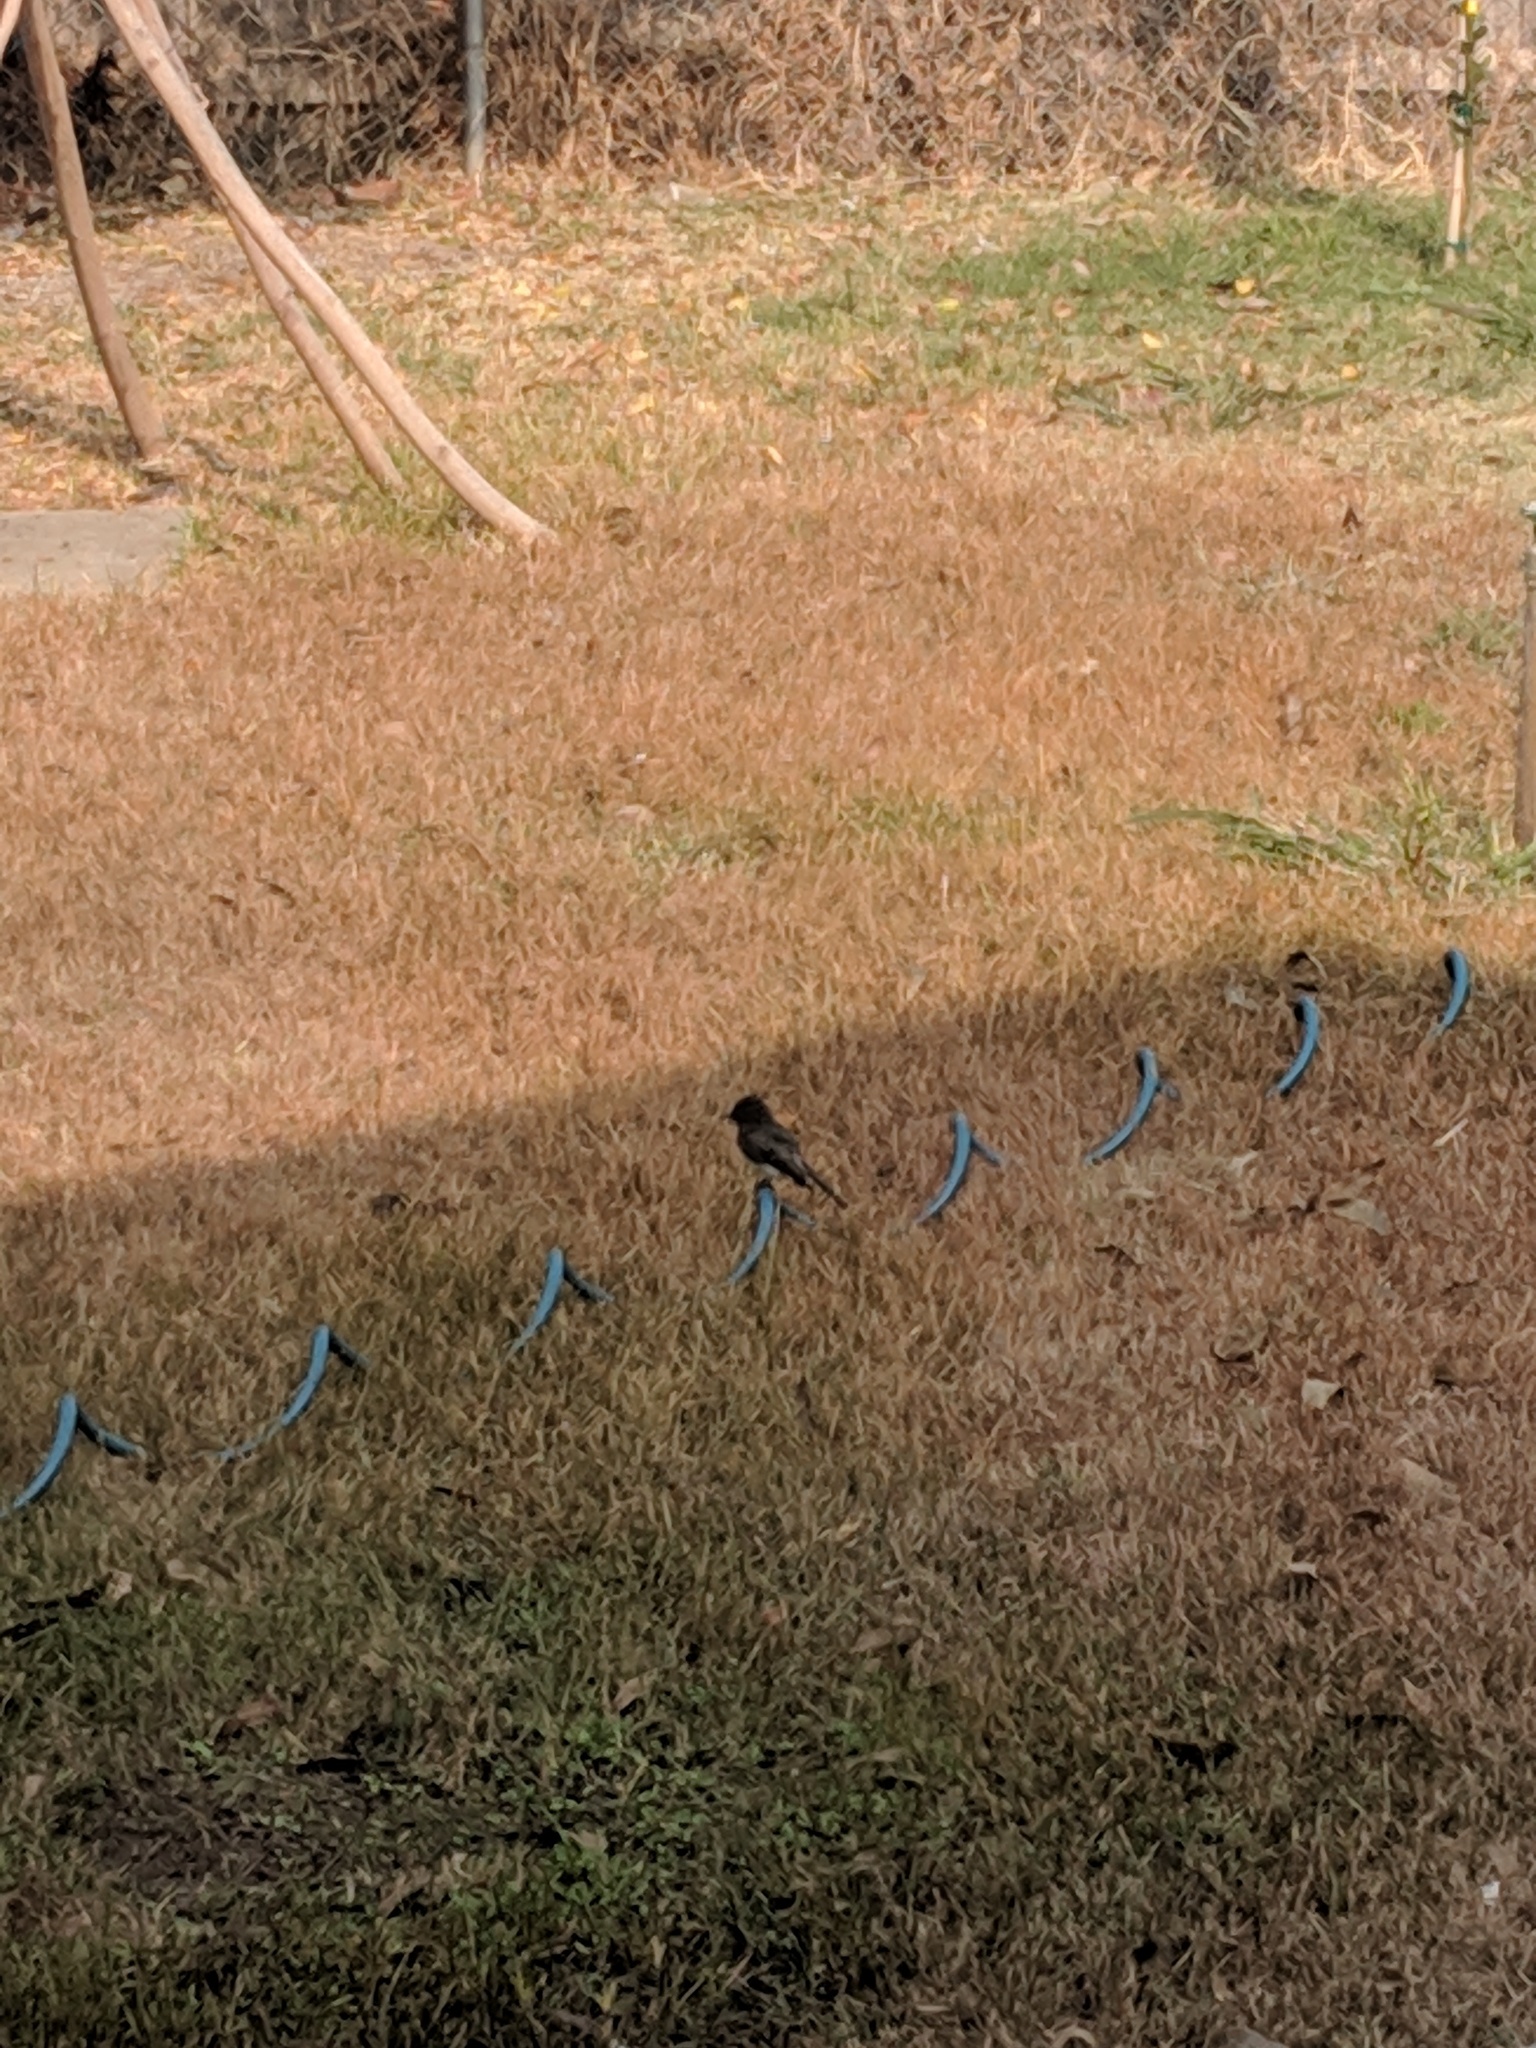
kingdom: Animalia
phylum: Chordata
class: Aves
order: Passeriformes
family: Tyrannidae
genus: Sayornis
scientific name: Sayornis nigricans
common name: Black phoebe
